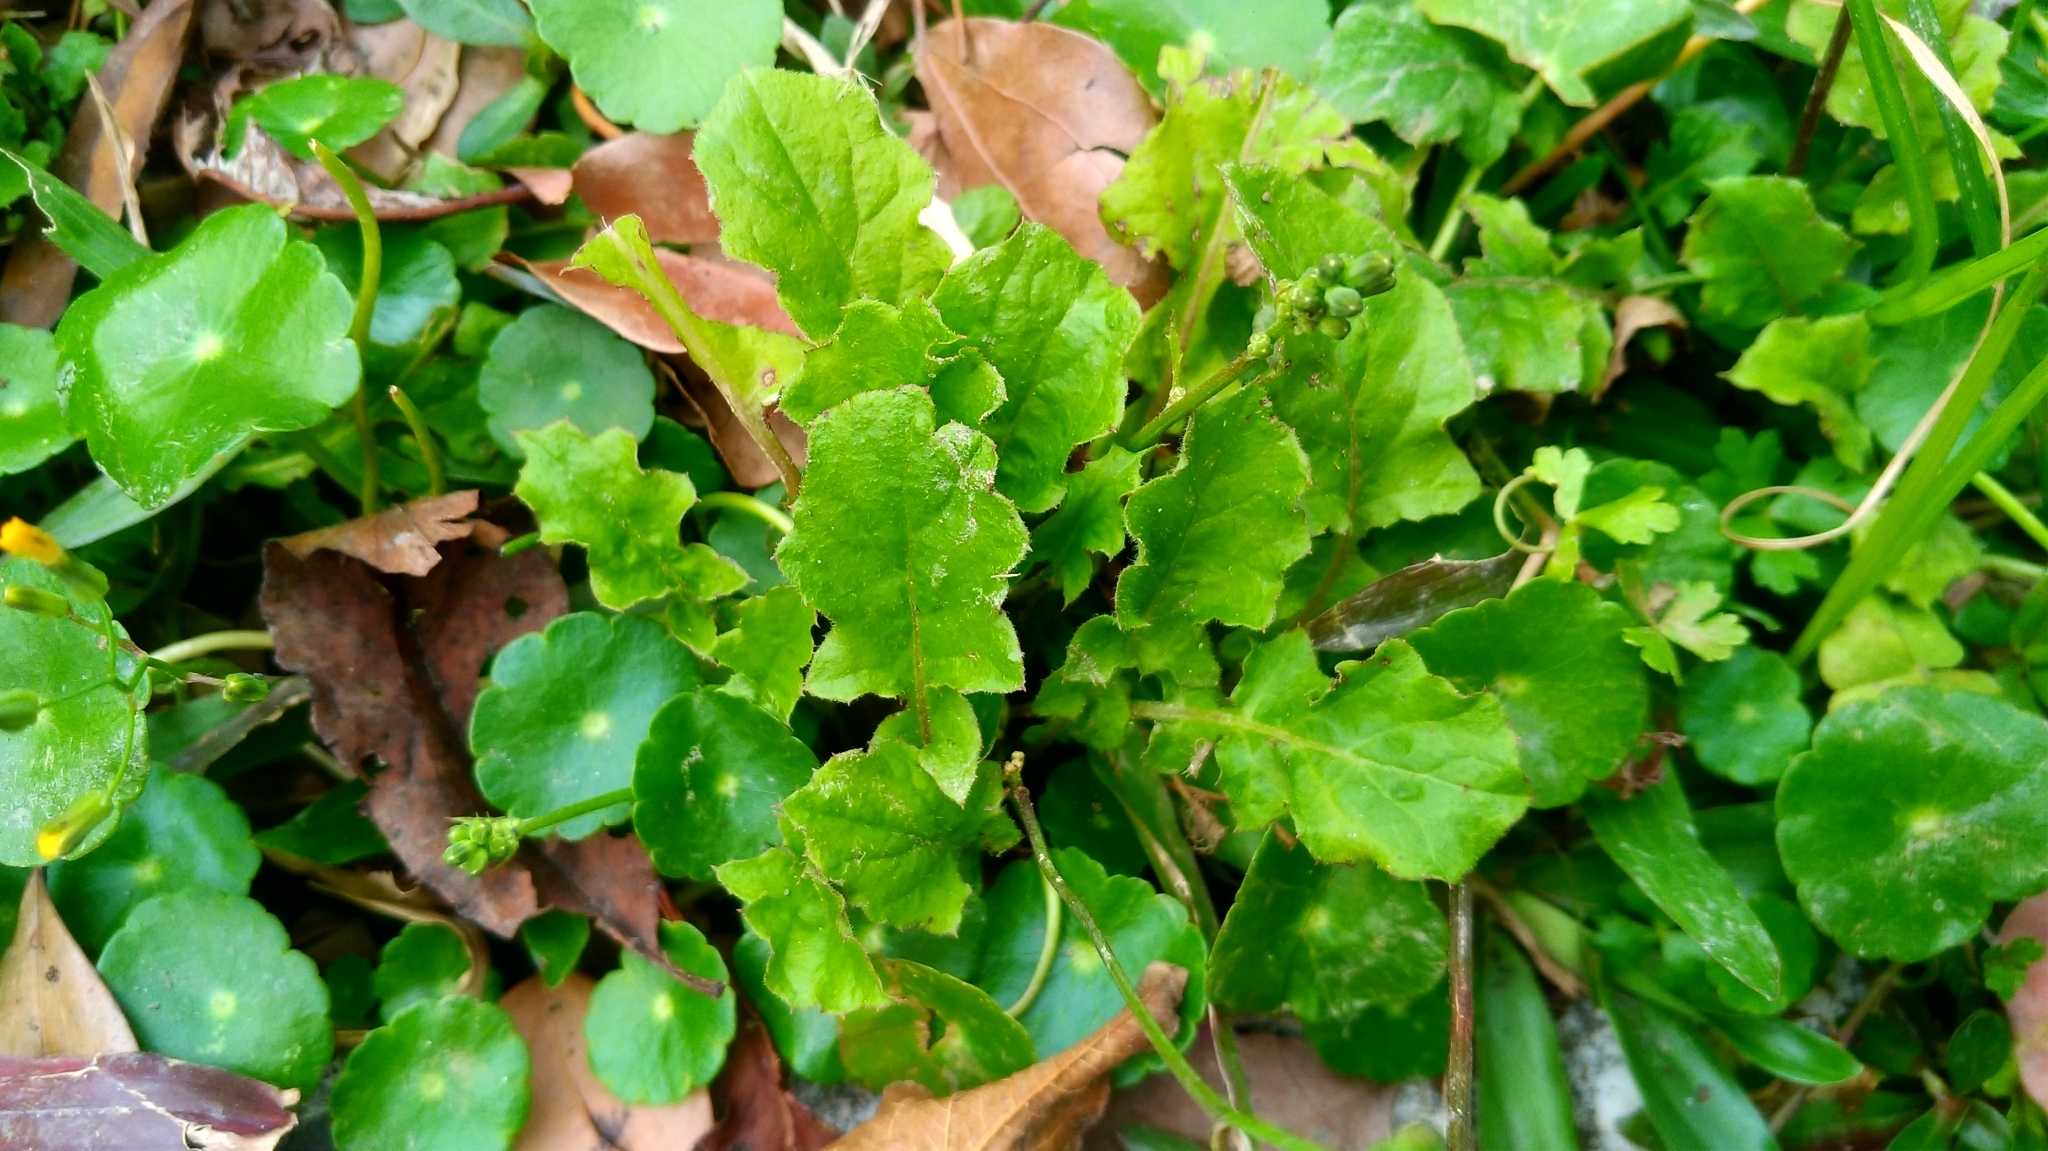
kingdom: Plantae
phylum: Tracheophyta
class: Magnoliopsida
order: Asterales
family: Asteraceae
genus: Youngia
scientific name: Youngia japonica
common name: Oriental false hawksbeard
